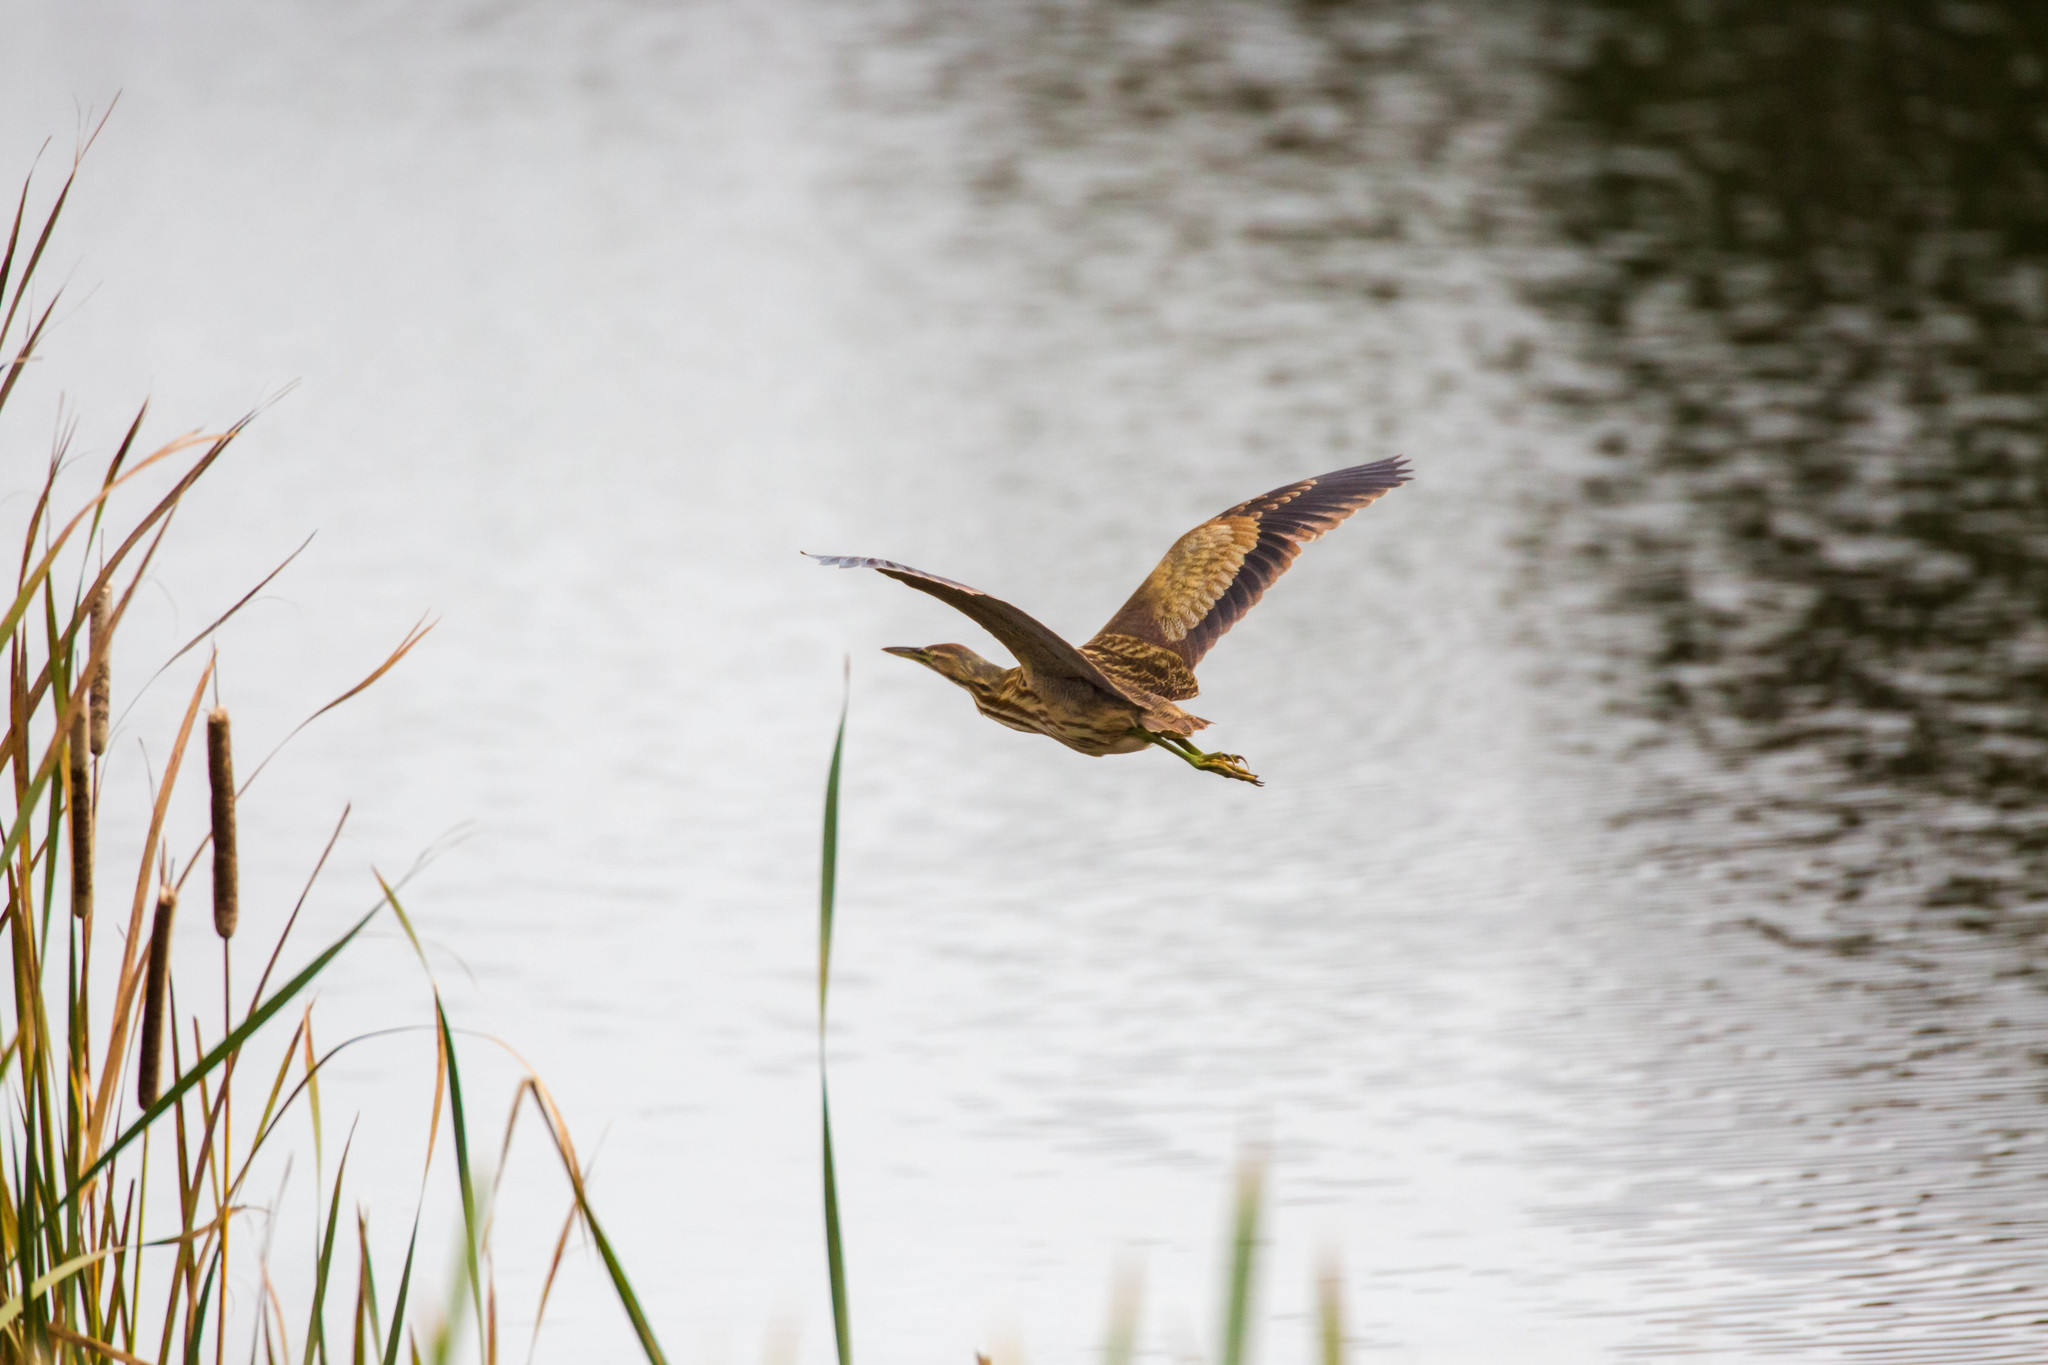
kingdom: Animalia
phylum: Chordata
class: Aves
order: Pelecaniformes
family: Ardeidae
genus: Botaurus
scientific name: Botaurus lentiginosus
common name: American bittern
